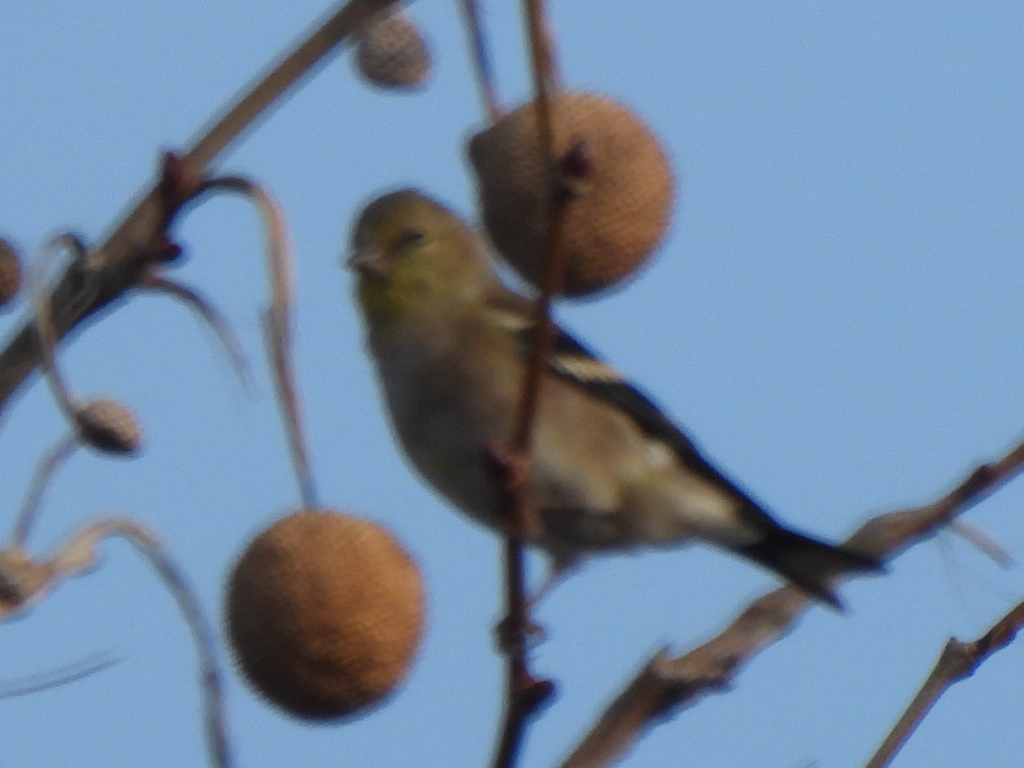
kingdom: Animalia
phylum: Chordata
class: Aves
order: Passeriformes
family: Fringillidae
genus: Spinus
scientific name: Spinus tristis
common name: American goldfinch
